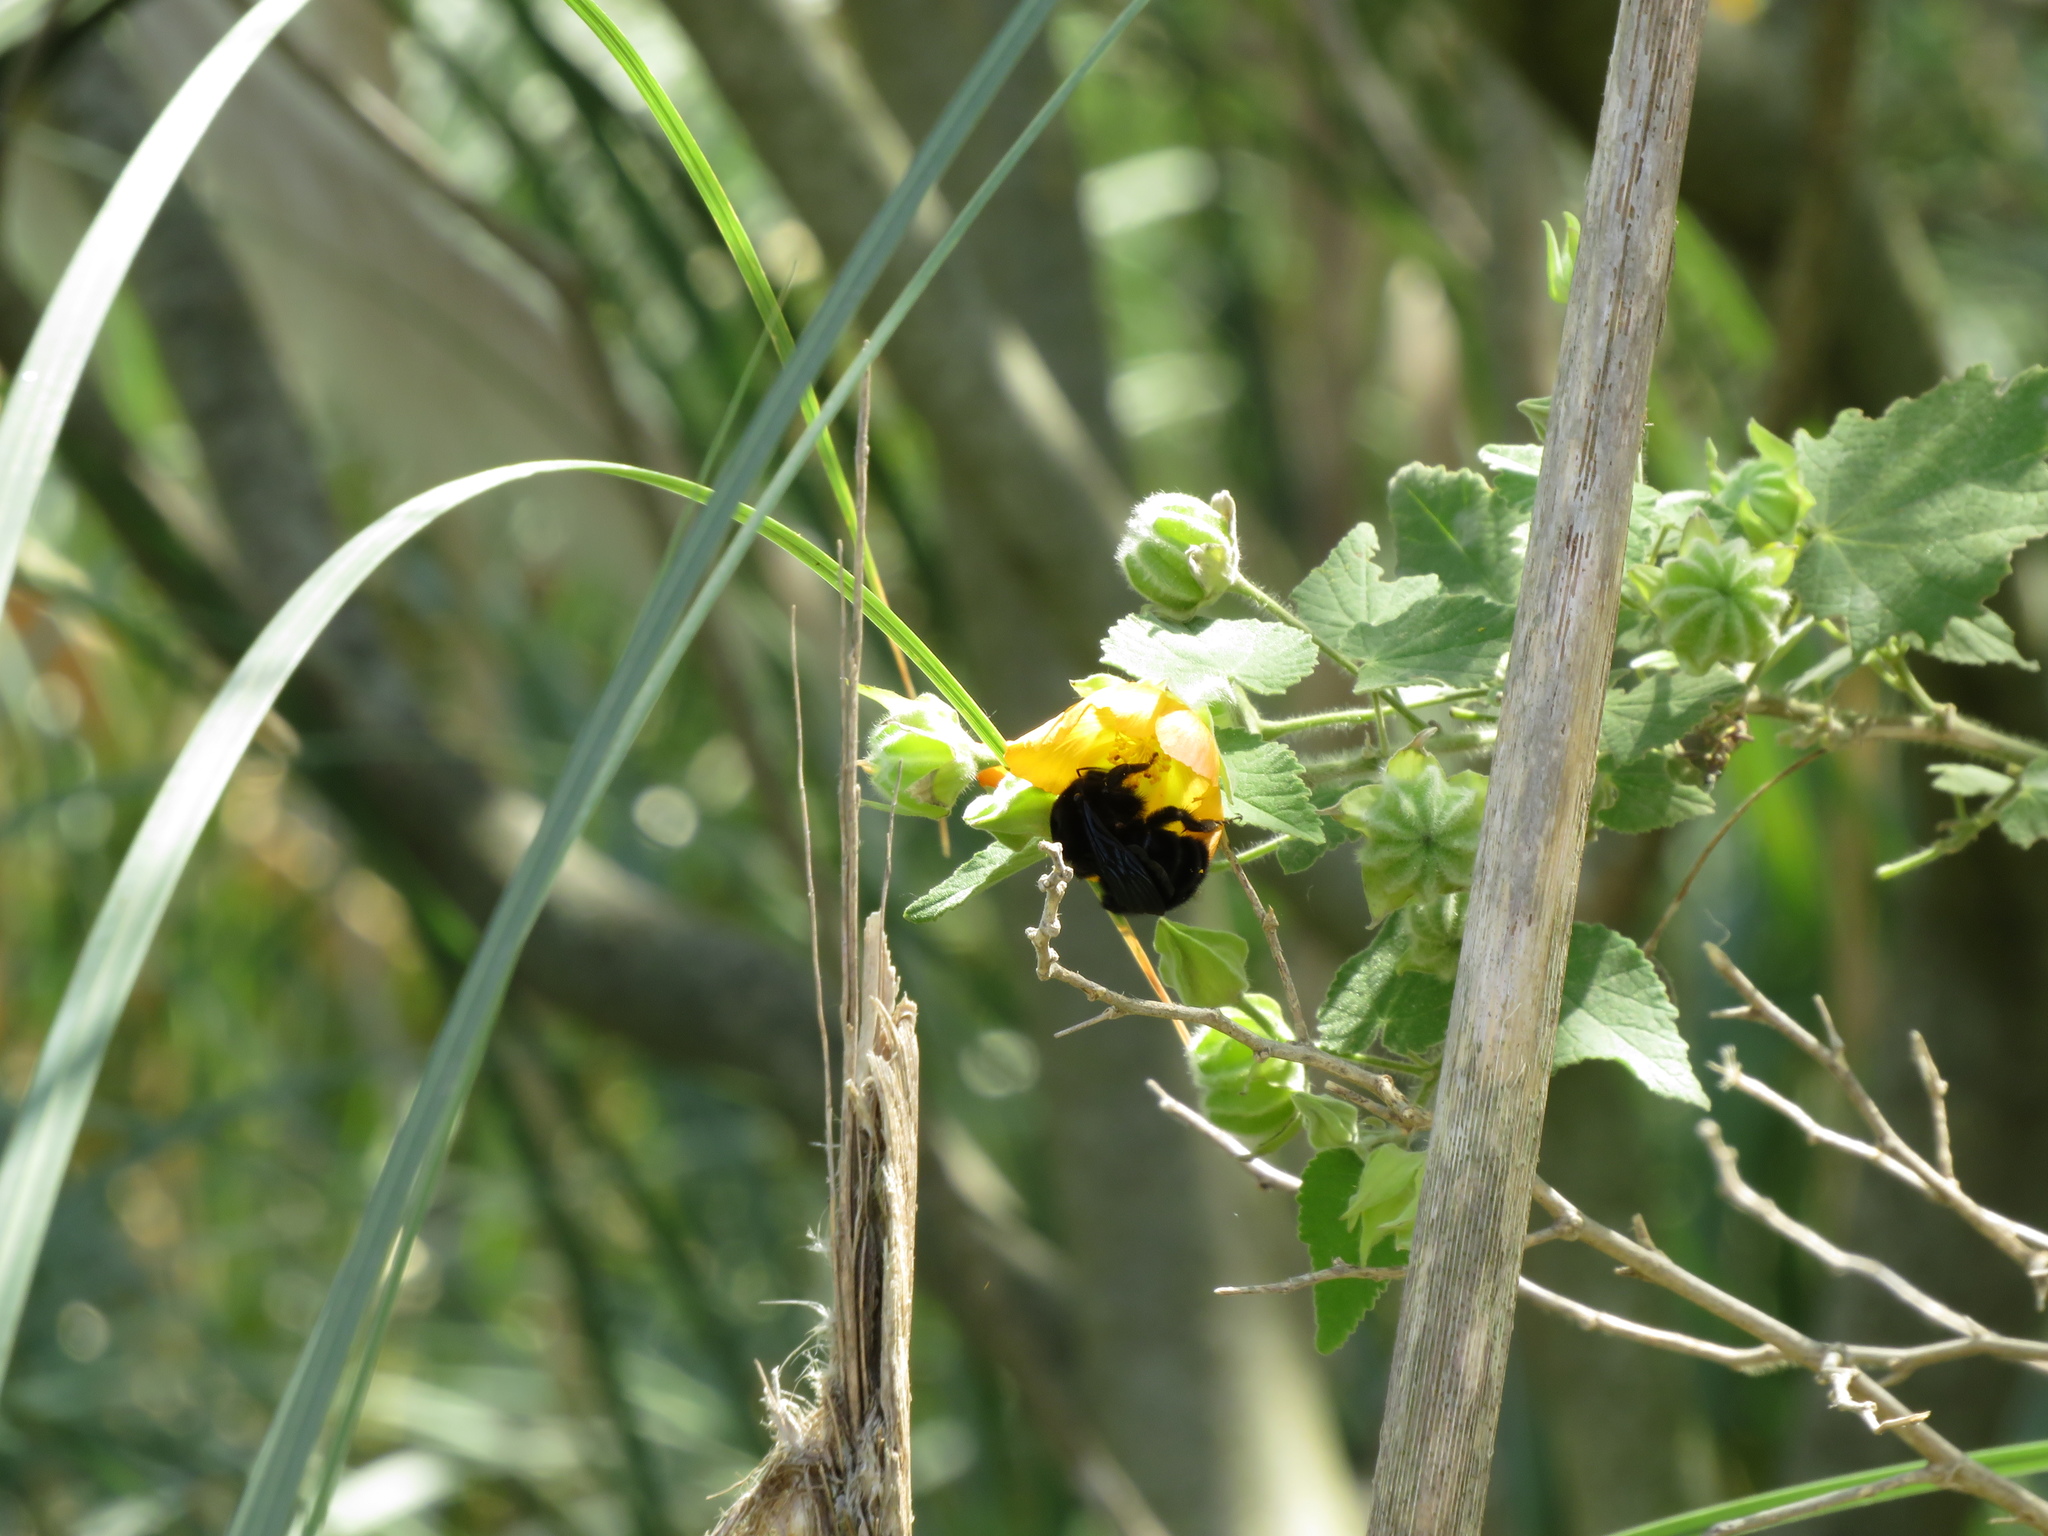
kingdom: Animalia
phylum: Arthropoda
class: Insecta
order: Hymenoptera
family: Apidae
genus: Bombus
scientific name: Bombus pauloensis
